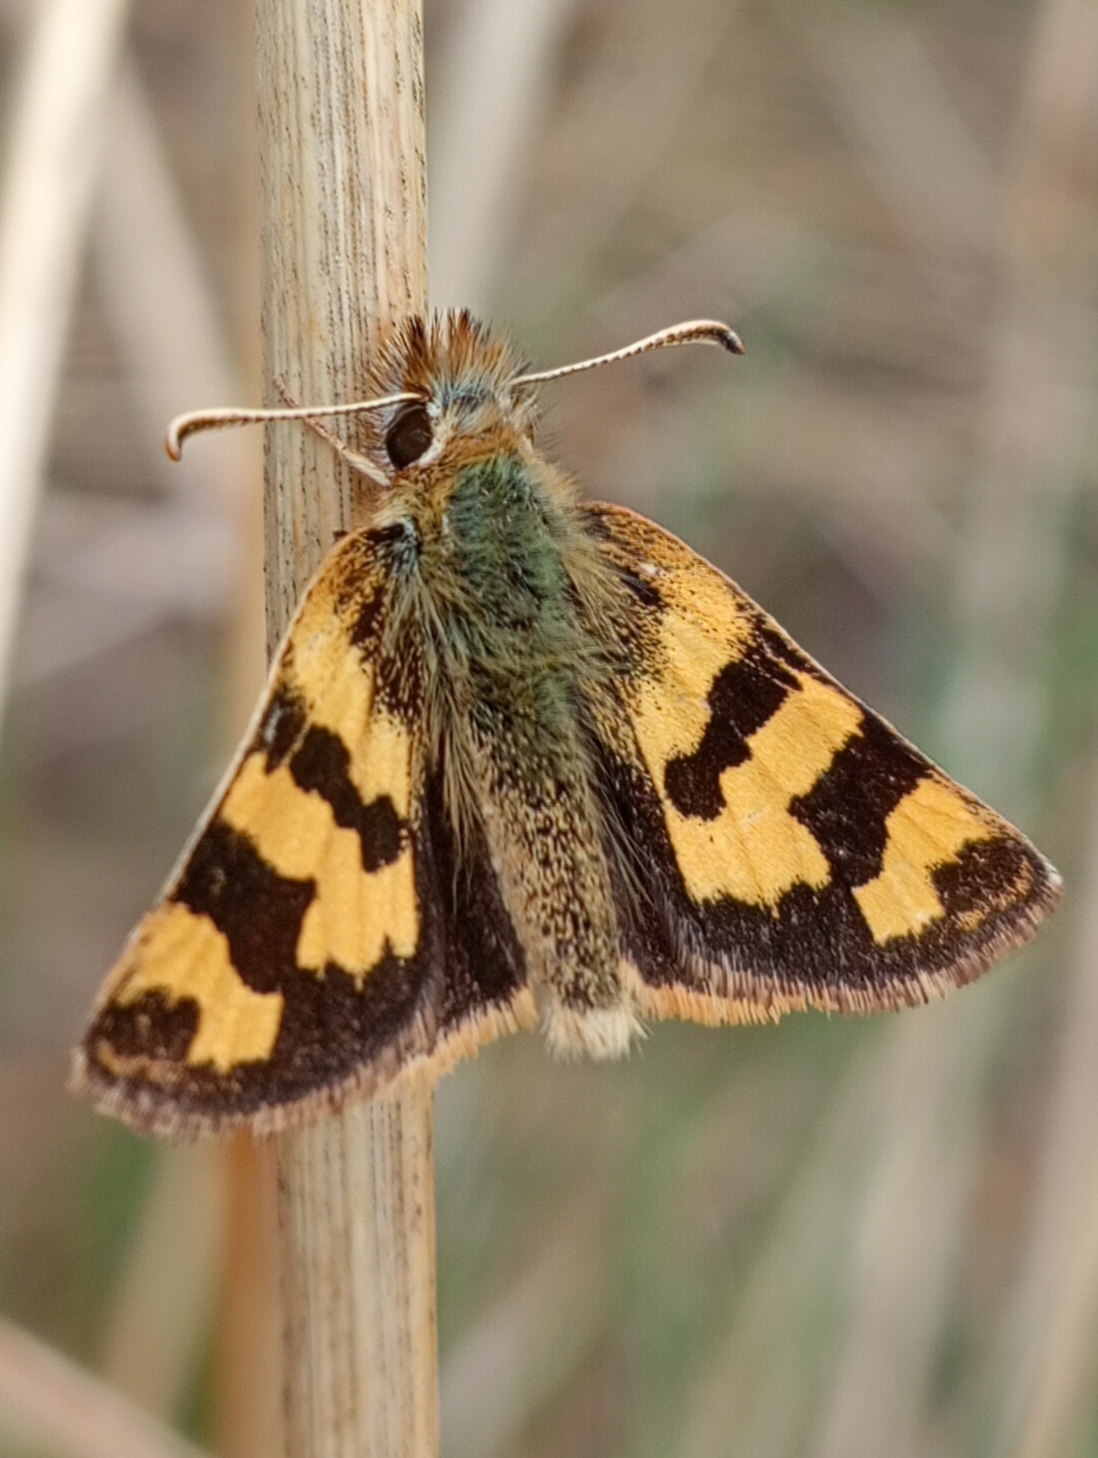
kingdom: Animalia
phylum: Arthropoda
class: Insecta
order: Lepidoptera
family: Hesperiidae
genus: Carterocephalus
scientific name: Carterocephalus avanti
